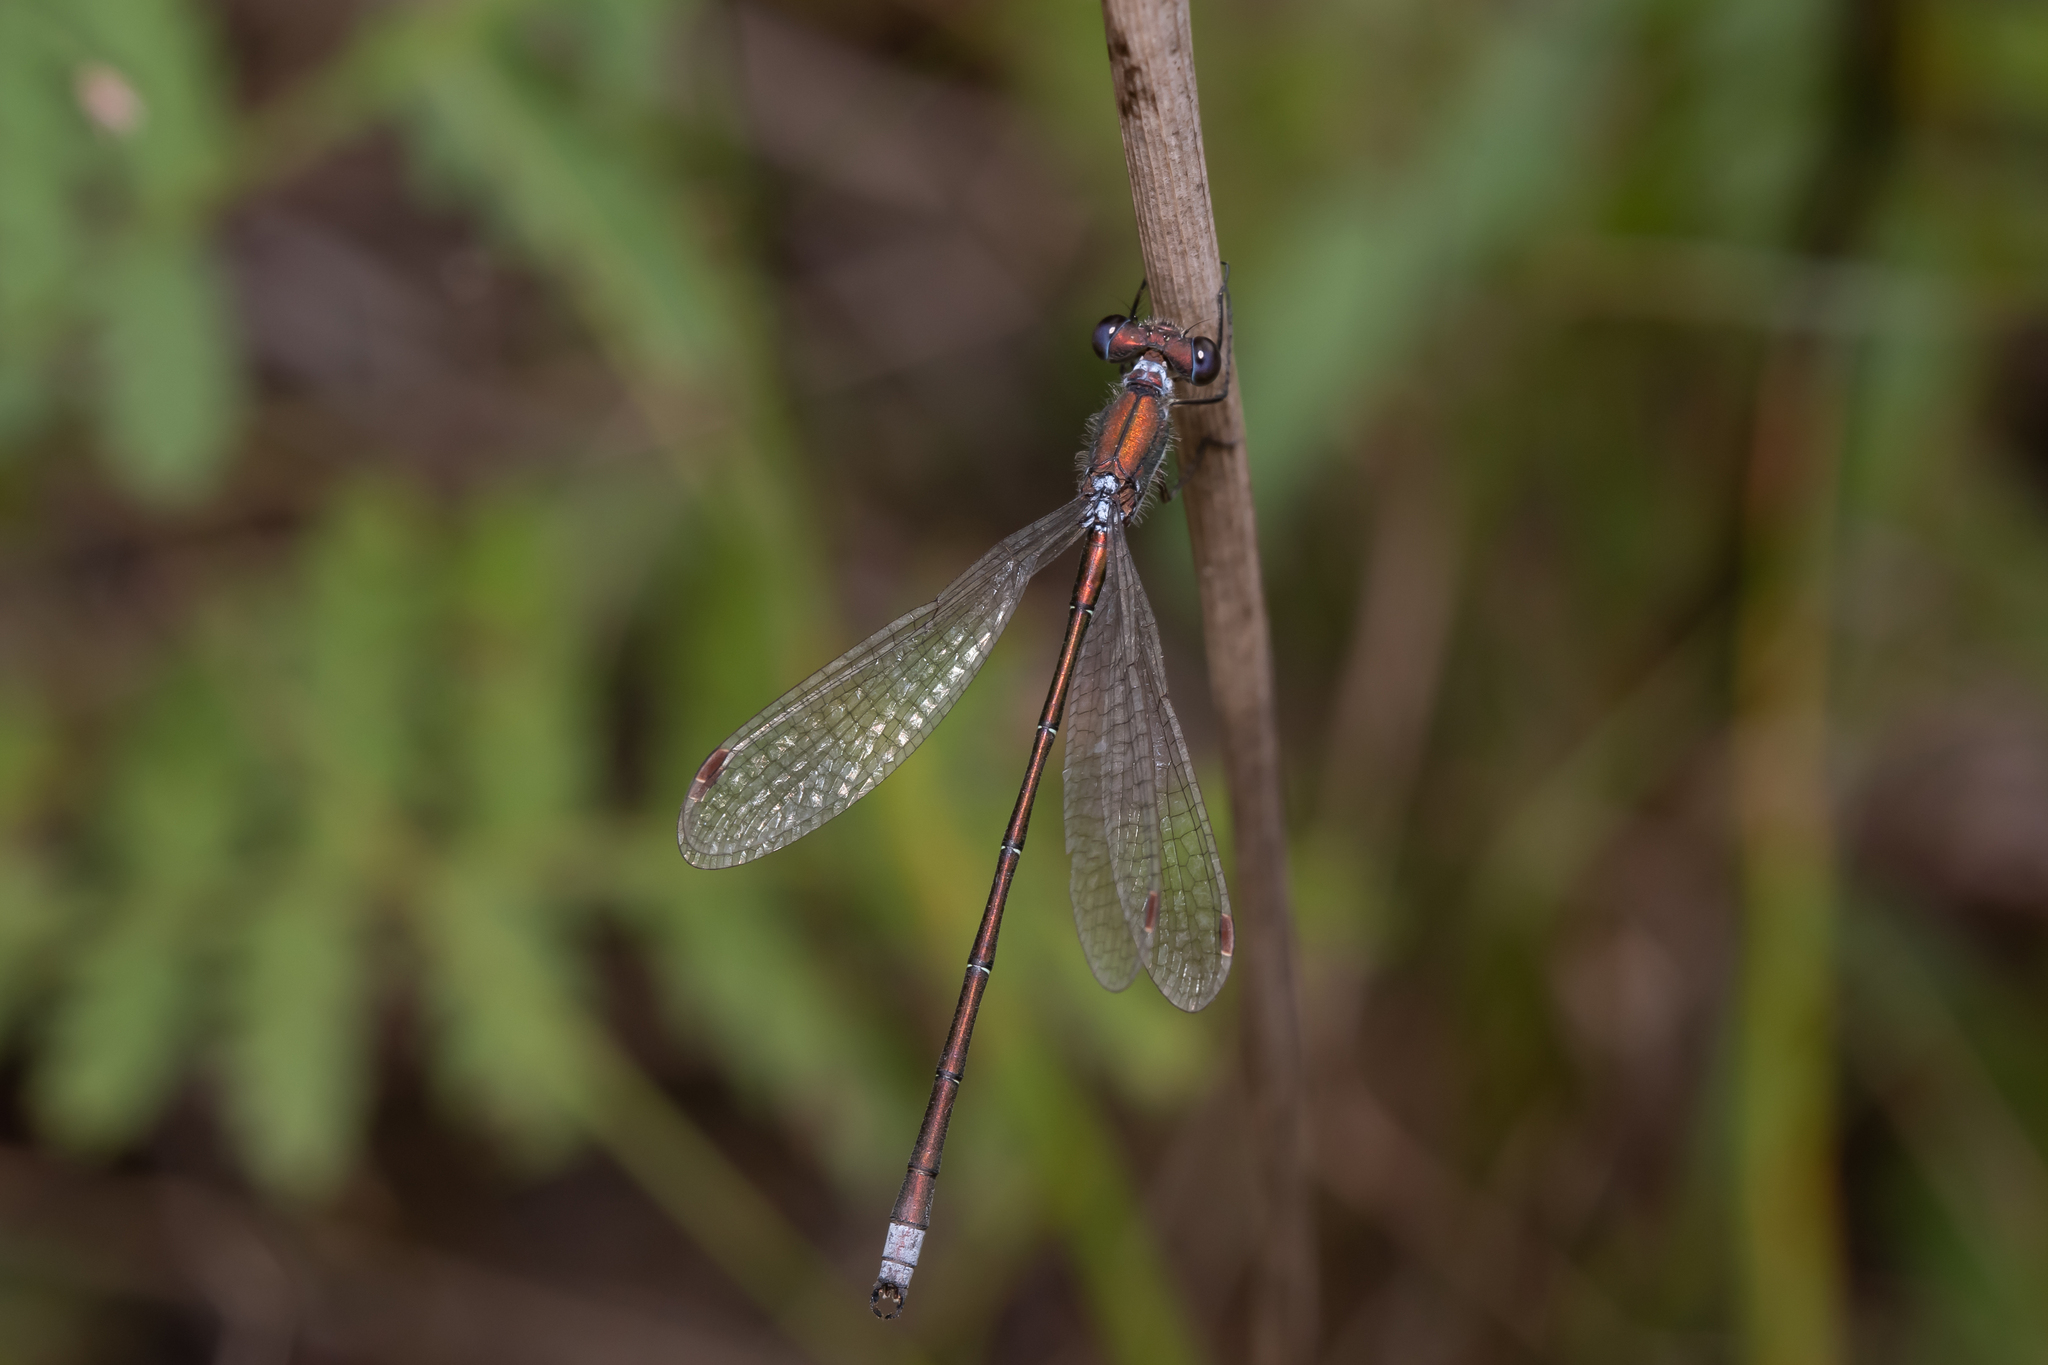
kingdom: Animalia
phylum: Arthropoda
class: Insecta
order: Odonata
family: Lestidae
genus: Lestes
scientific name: Lestes virens
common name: Small emerald spreadwing
